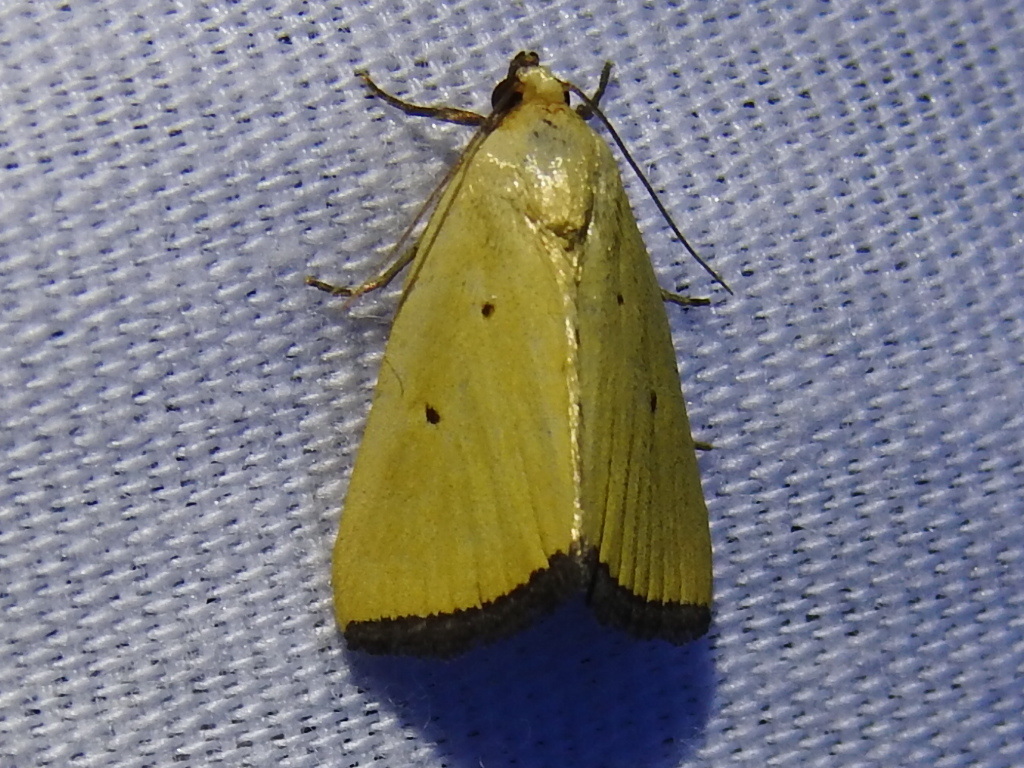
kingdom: Animalia
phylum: Arthropoda
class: Insecta
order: Lepidoptera
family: Noctuidae
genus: Marimatha
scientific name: Marimatha nigrofimbria
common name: Black-bordered lemon moth
